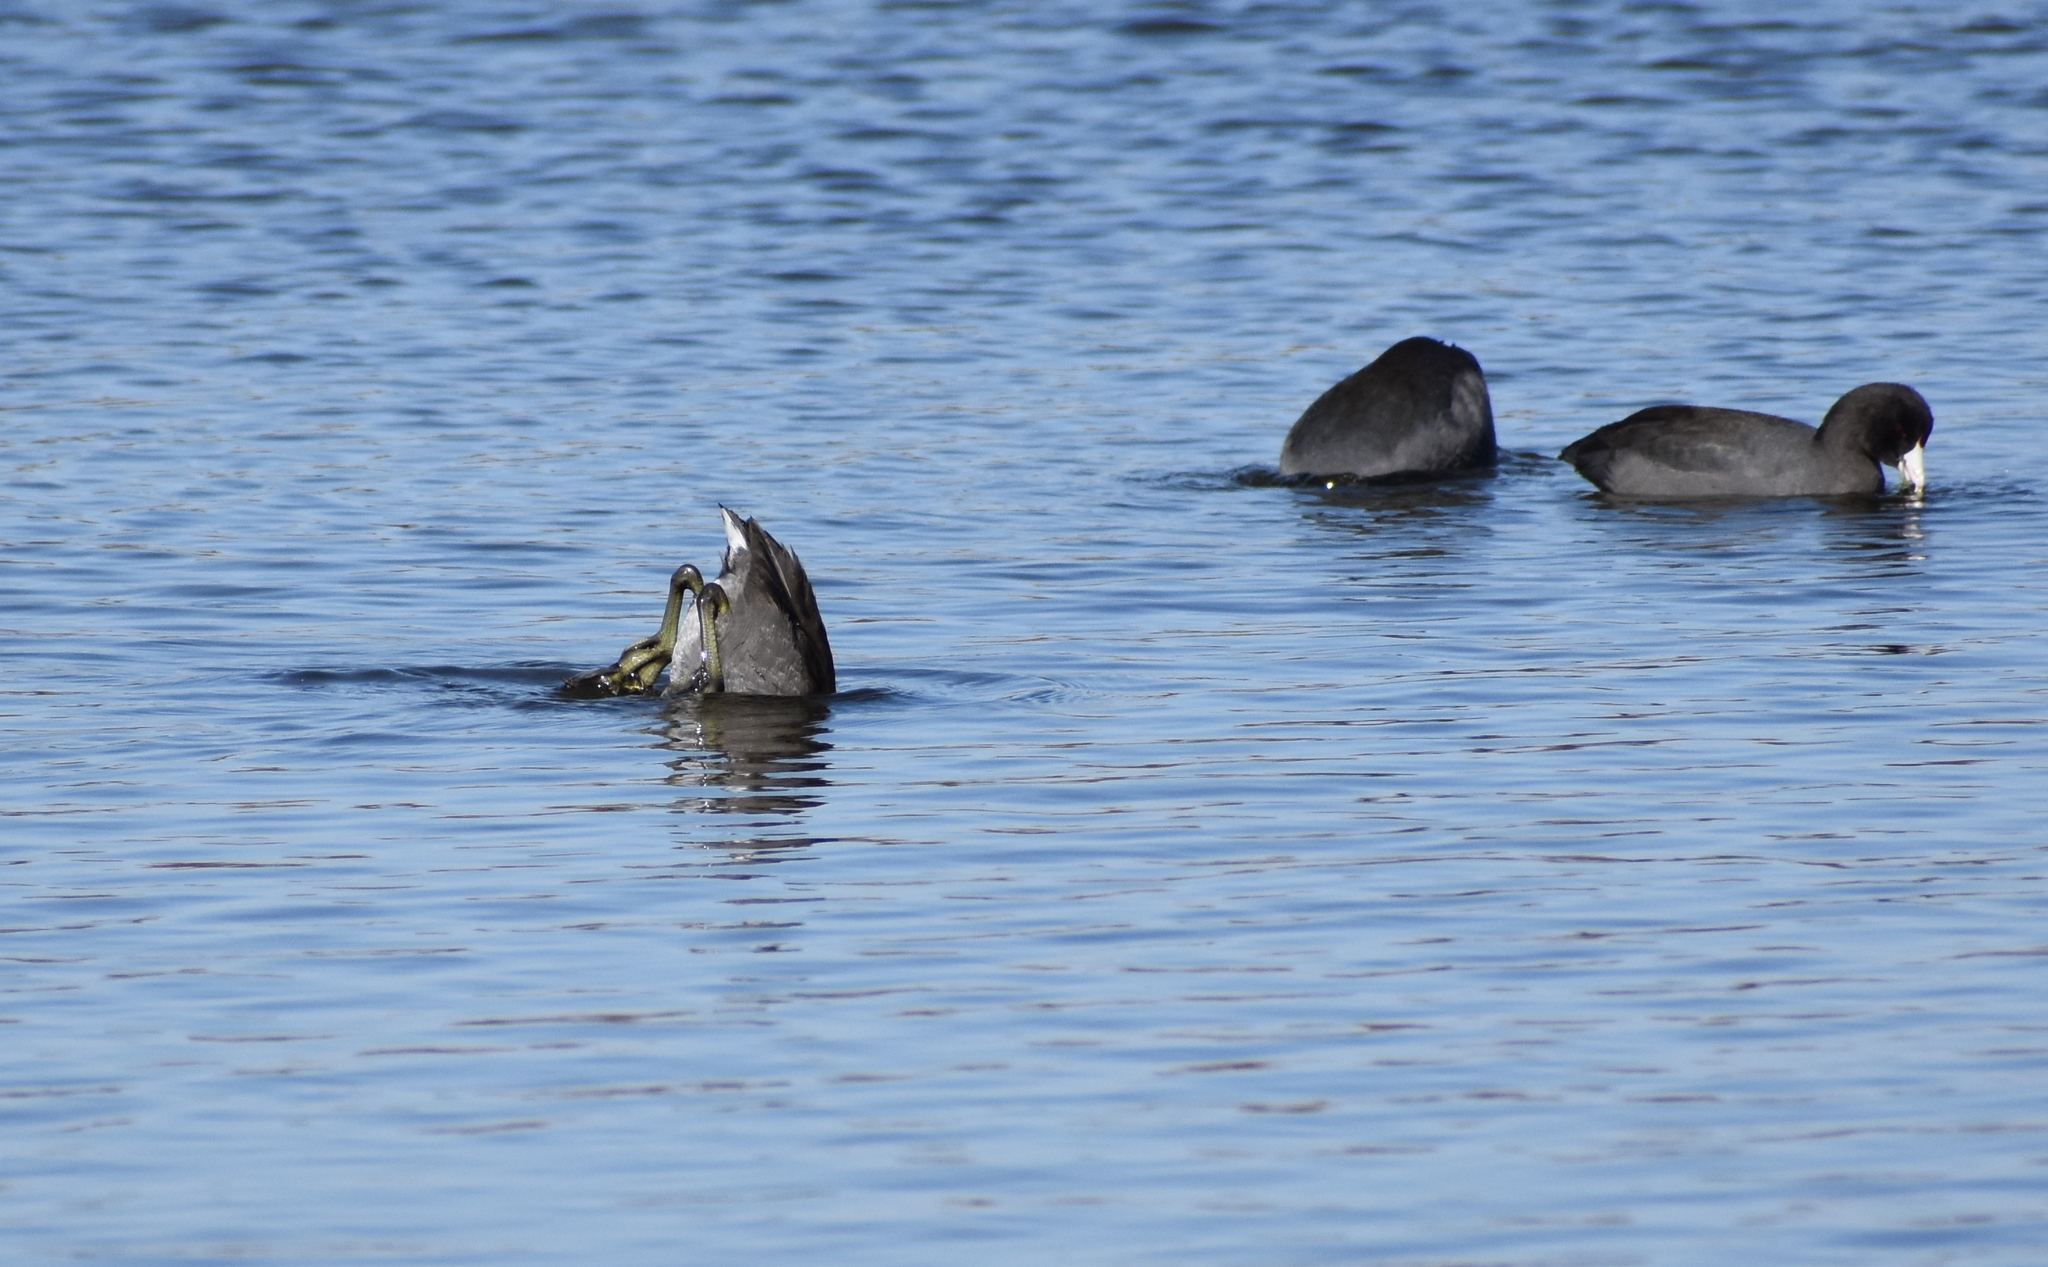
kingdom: Animalia
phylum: Chordata
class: Aves
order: Gruiformes
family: Rallidae
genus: Fulica
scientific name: Fulica americana
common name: American coot
